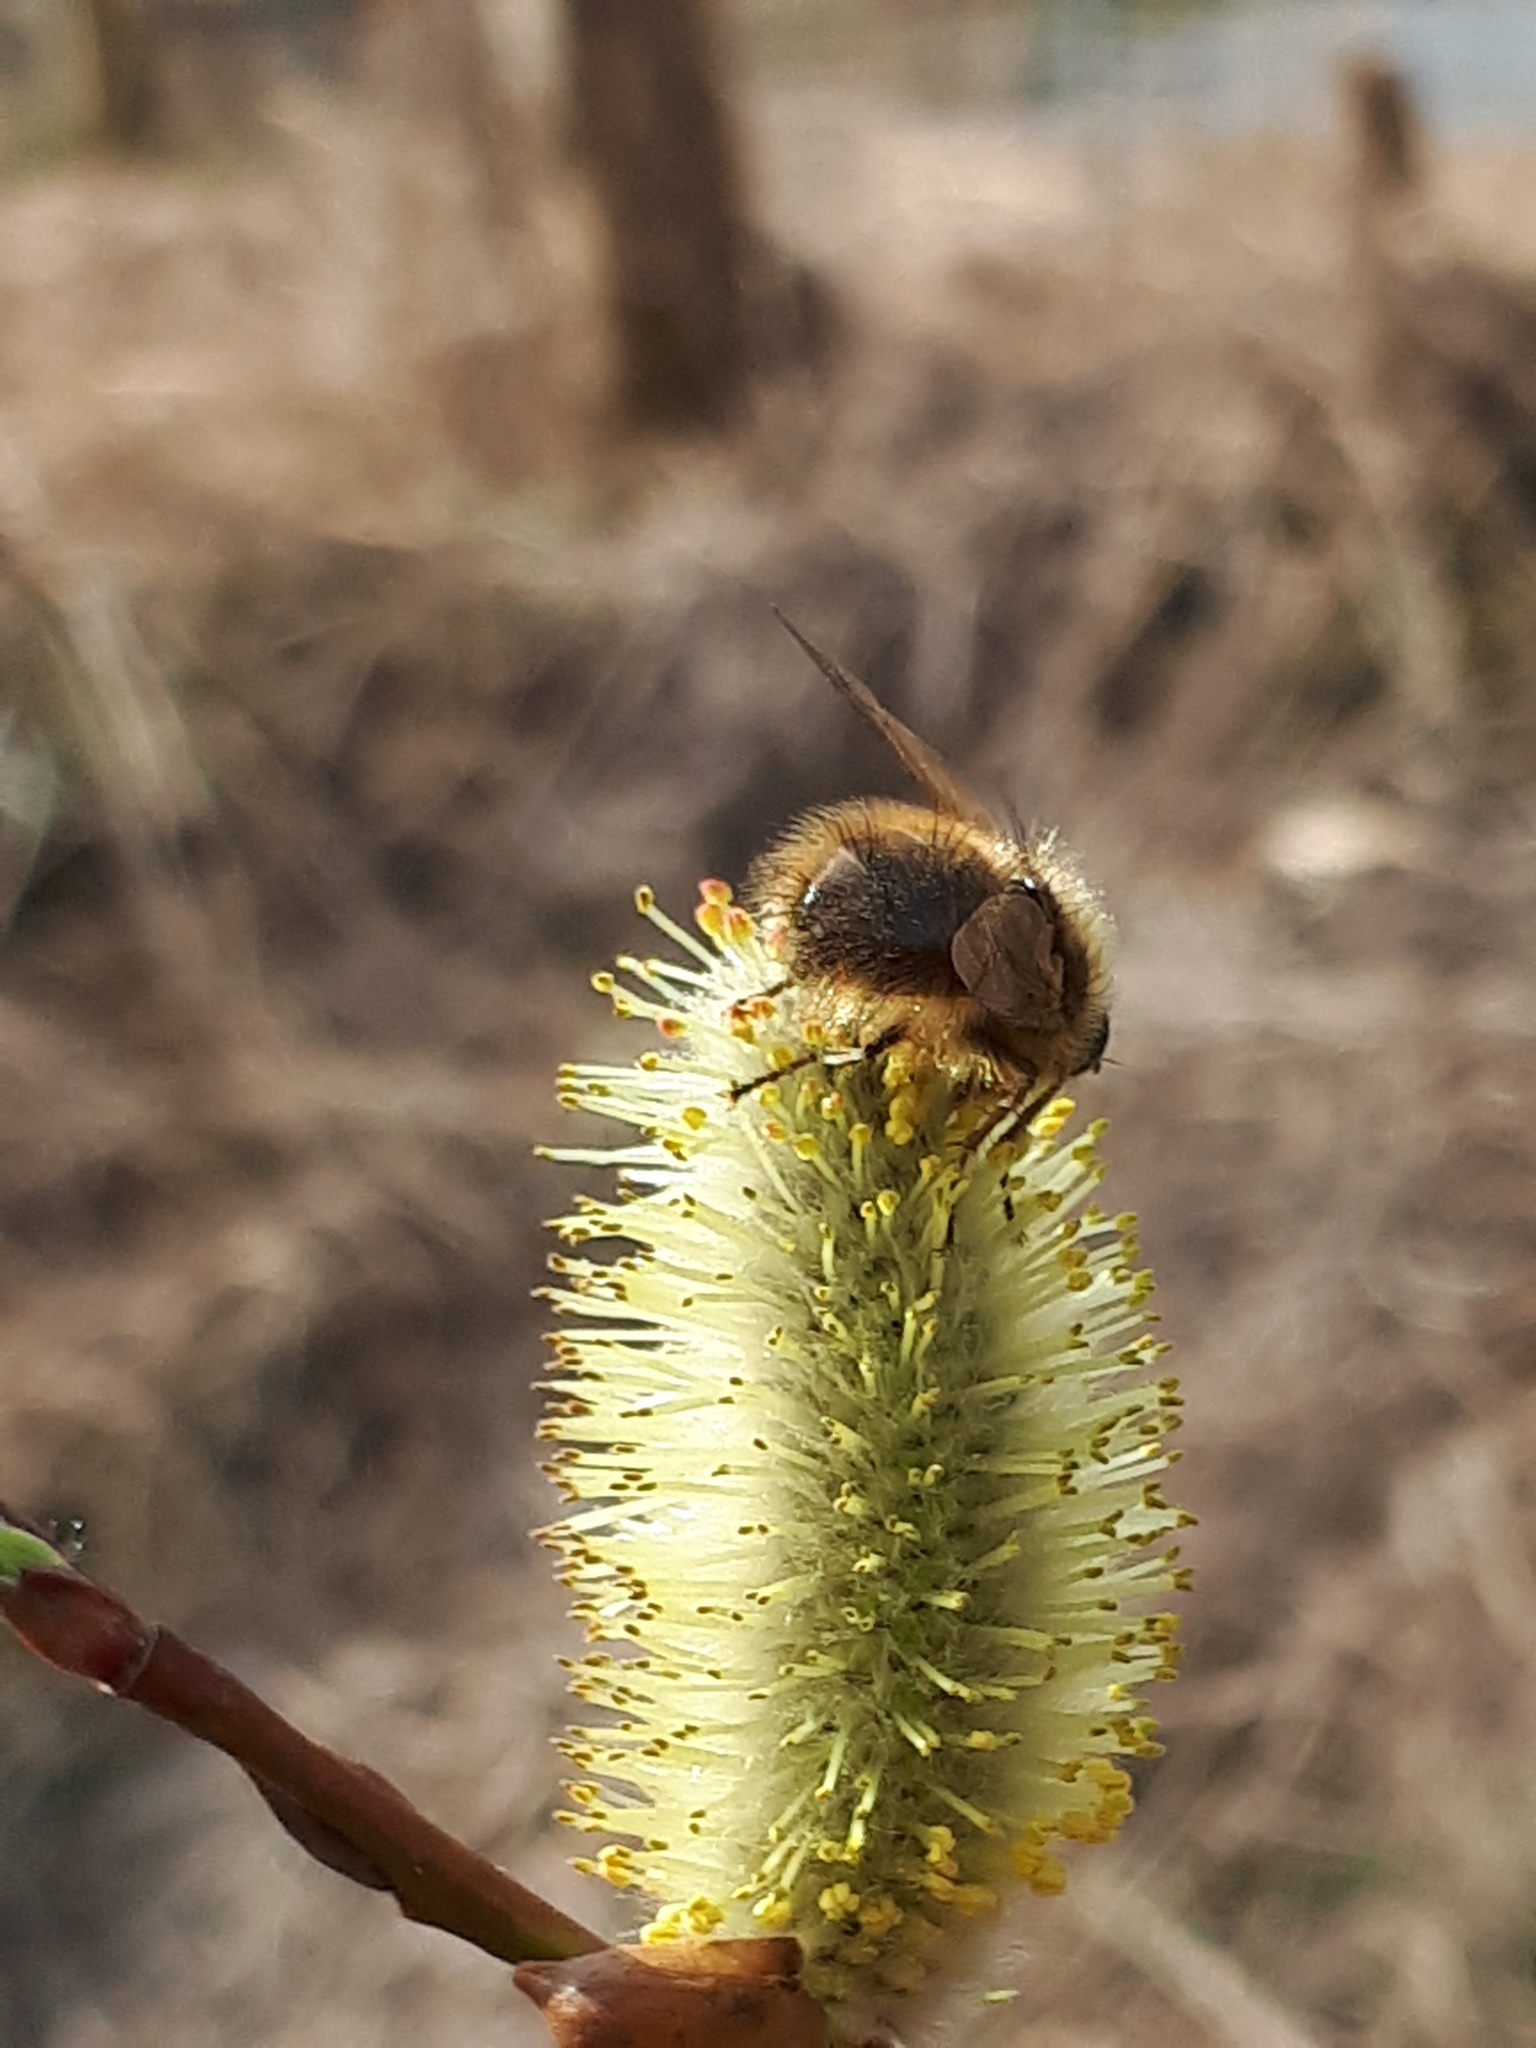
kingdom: Animalia
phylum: Arthropoda
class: Insecta
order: Diptera
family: Tachinidae
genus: Tachina
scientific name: Tachina ursina
